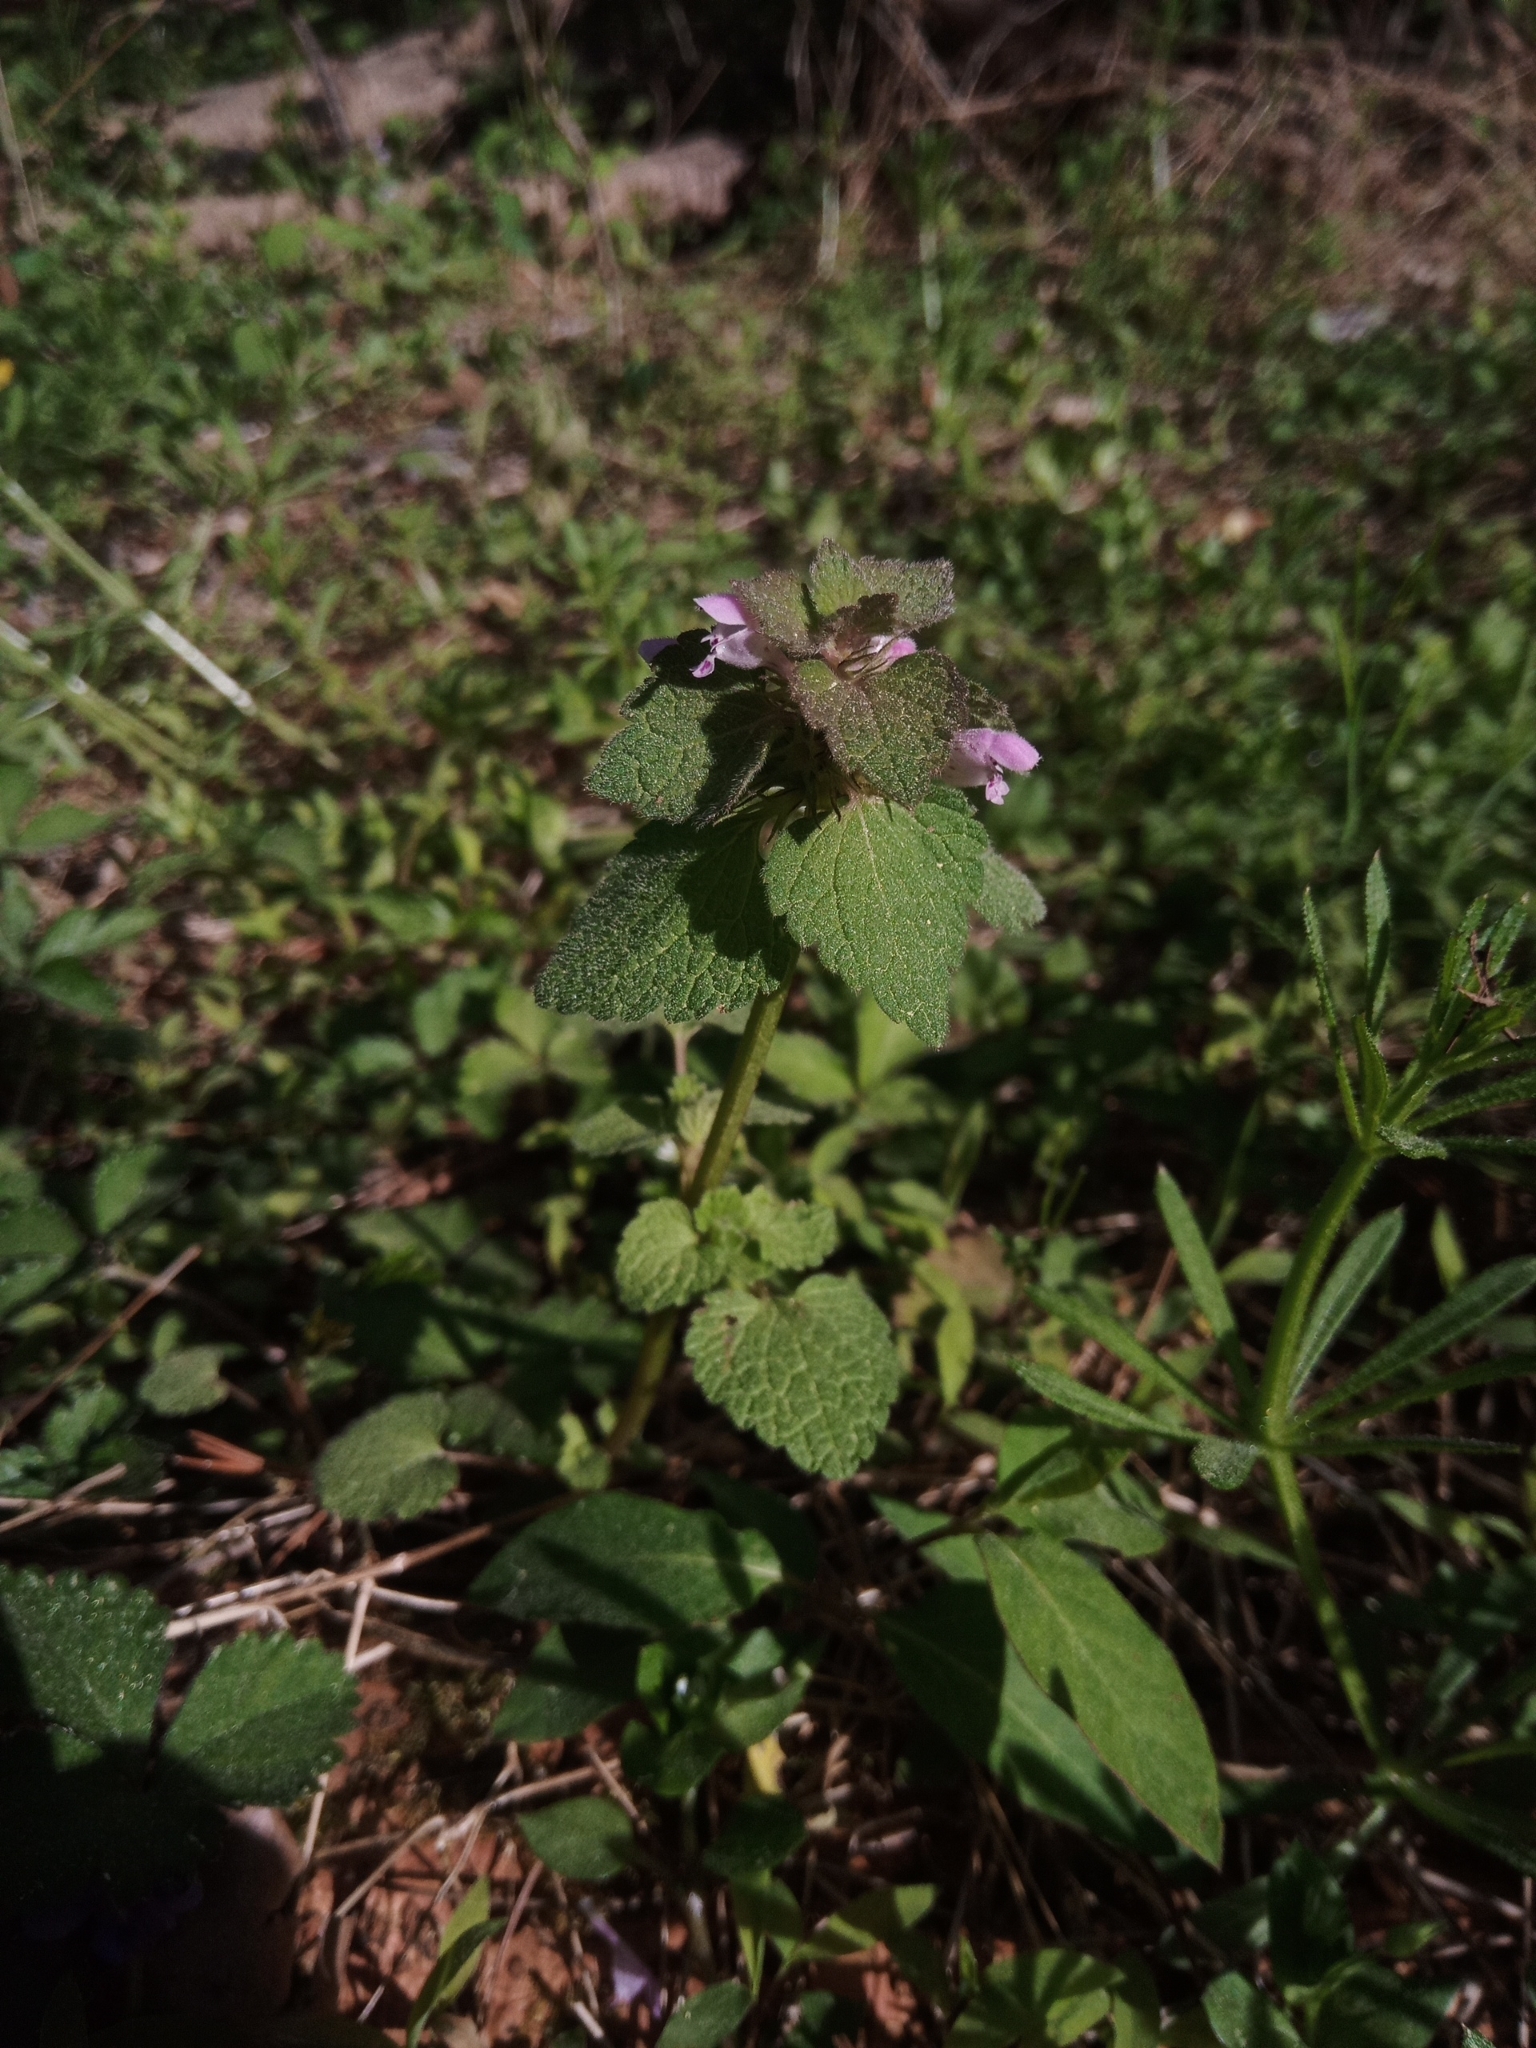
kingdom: Plantae
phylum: Tracheophyta
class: Magnoliopsida
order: Lamiales
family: Lamiaceae
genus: Lamium
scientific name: Lamium purpureum
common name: Red dead-nettle
